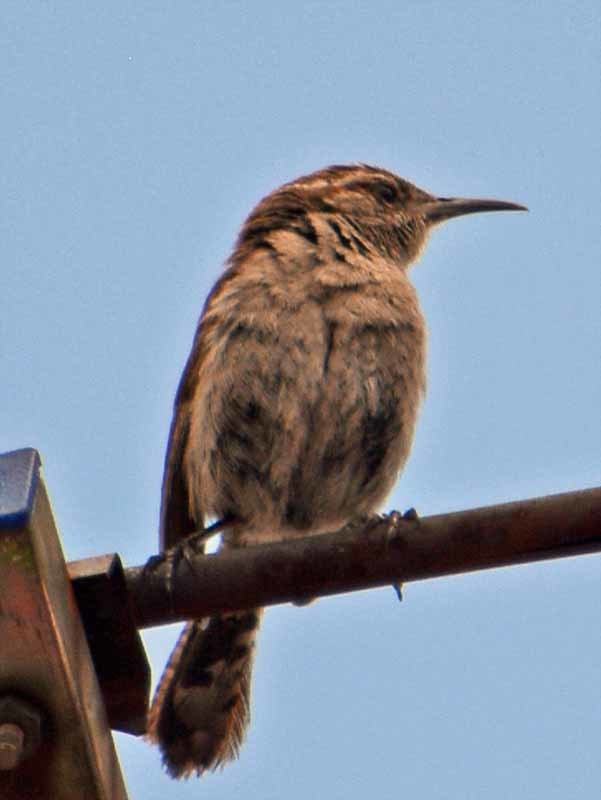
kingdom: Animalia
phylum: Chordata
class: Aves
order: Passeriformes
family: Troglodytidae
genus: Thryomanes
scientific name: Thryomanes bewickii
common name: Bewick's wren
